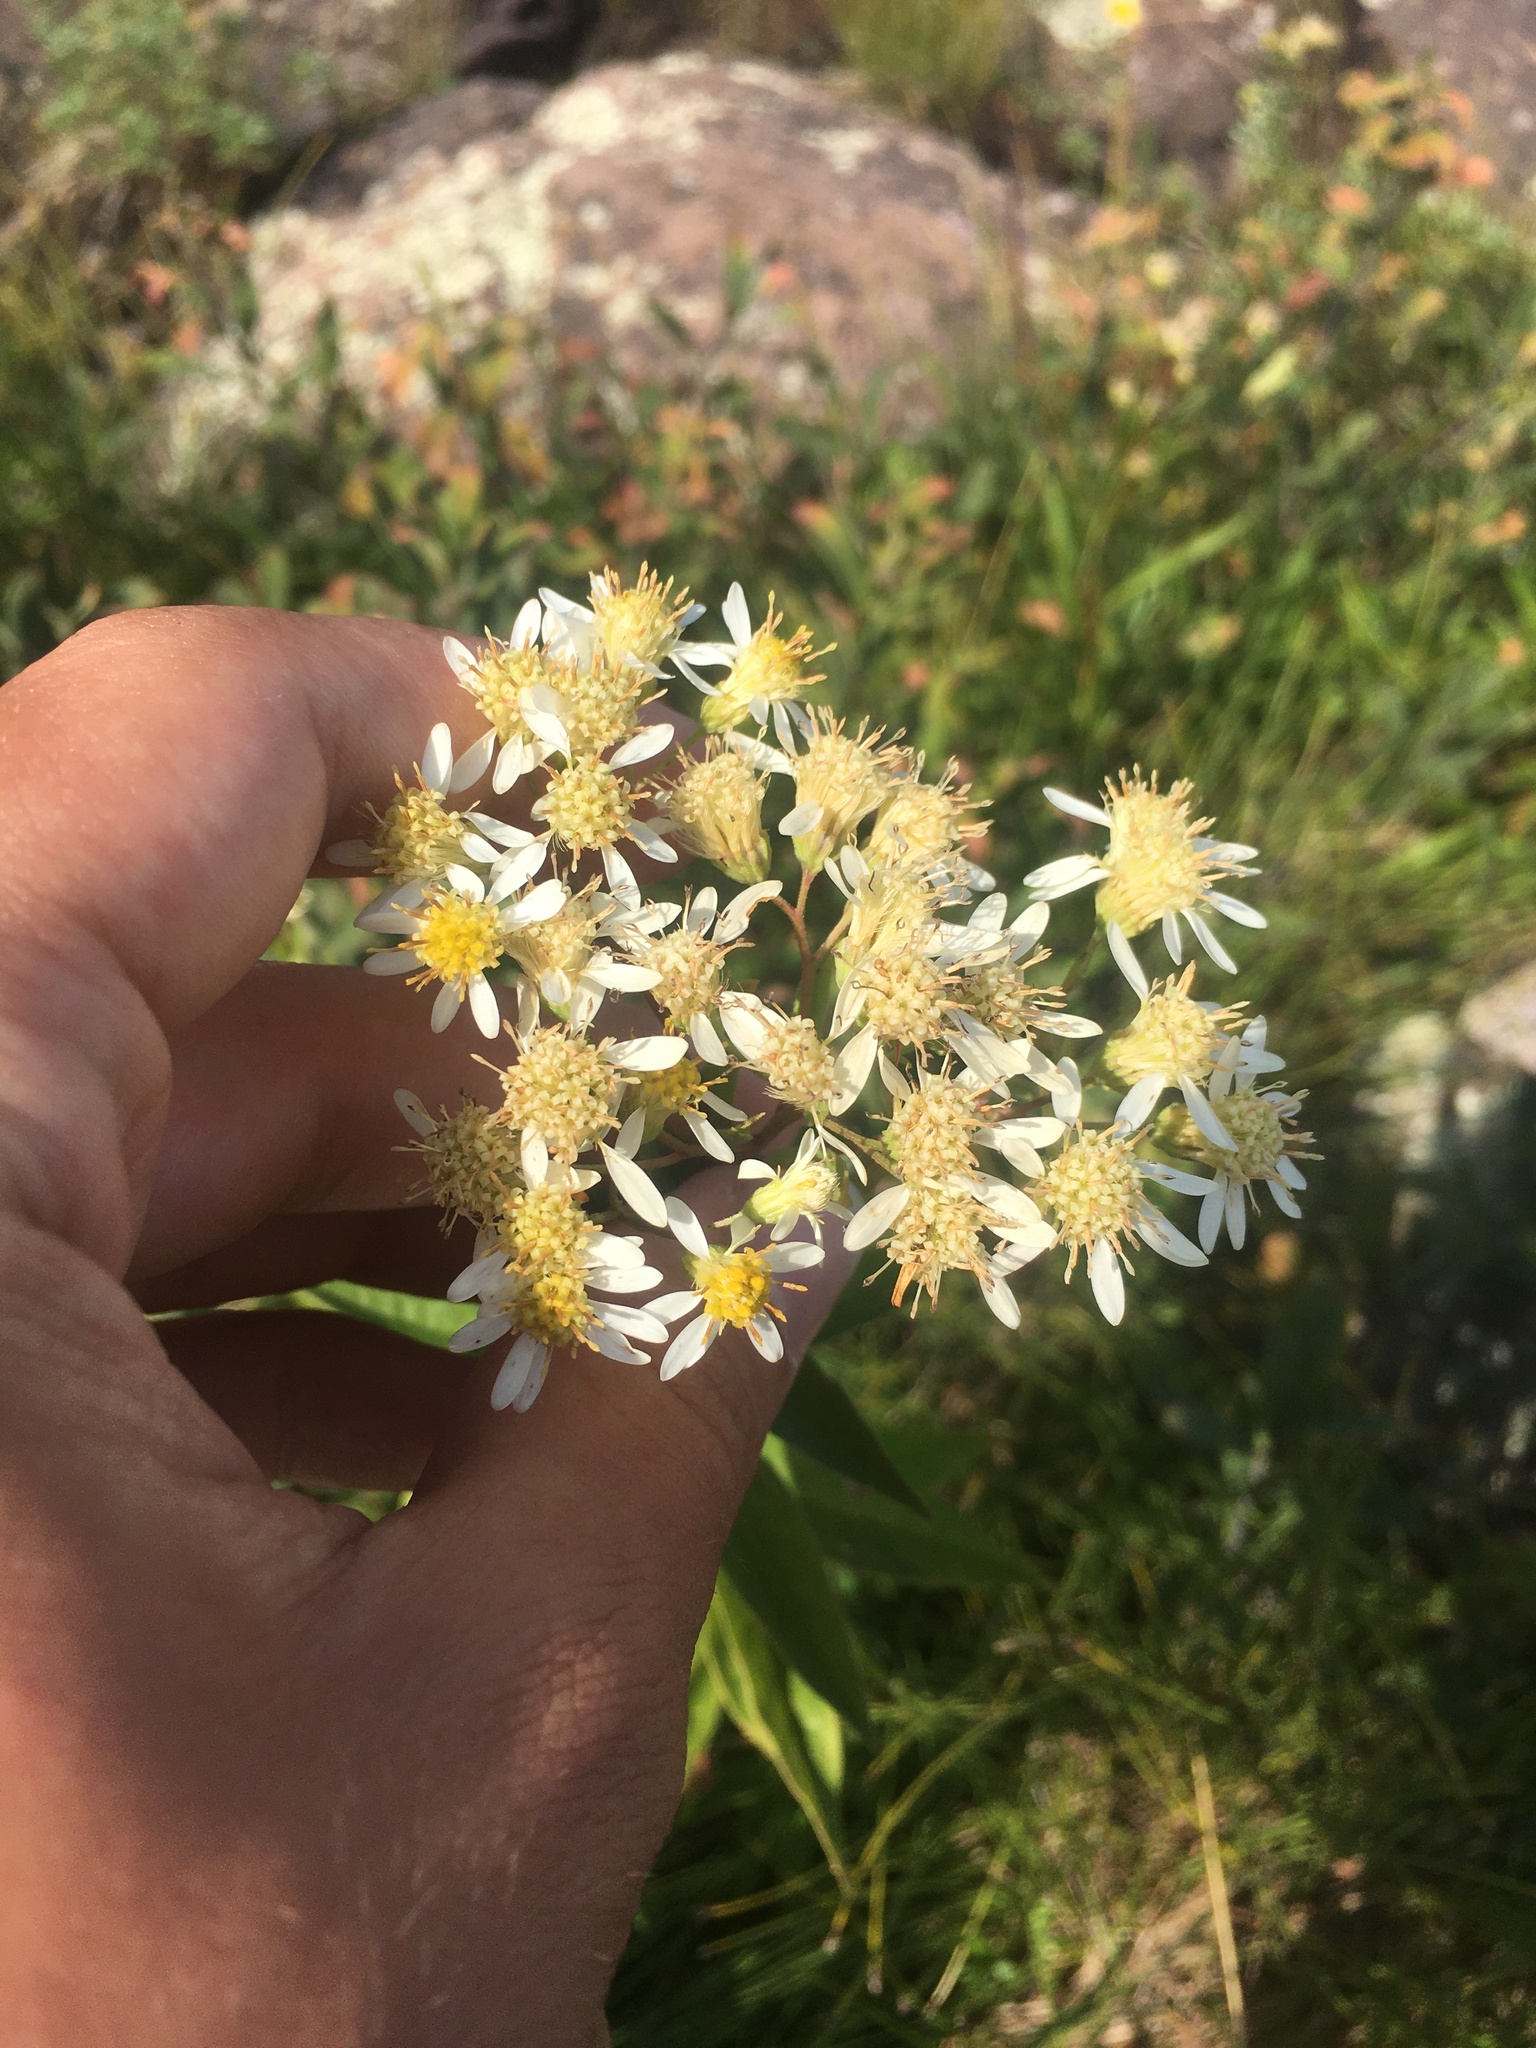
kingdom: Plantae
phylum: Tracheophyta
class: Magnoliopsida
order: Asterales
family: Asteraceae
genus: Doellingeria
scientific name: Doellingeria umbellata
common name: Flat-top white aster
